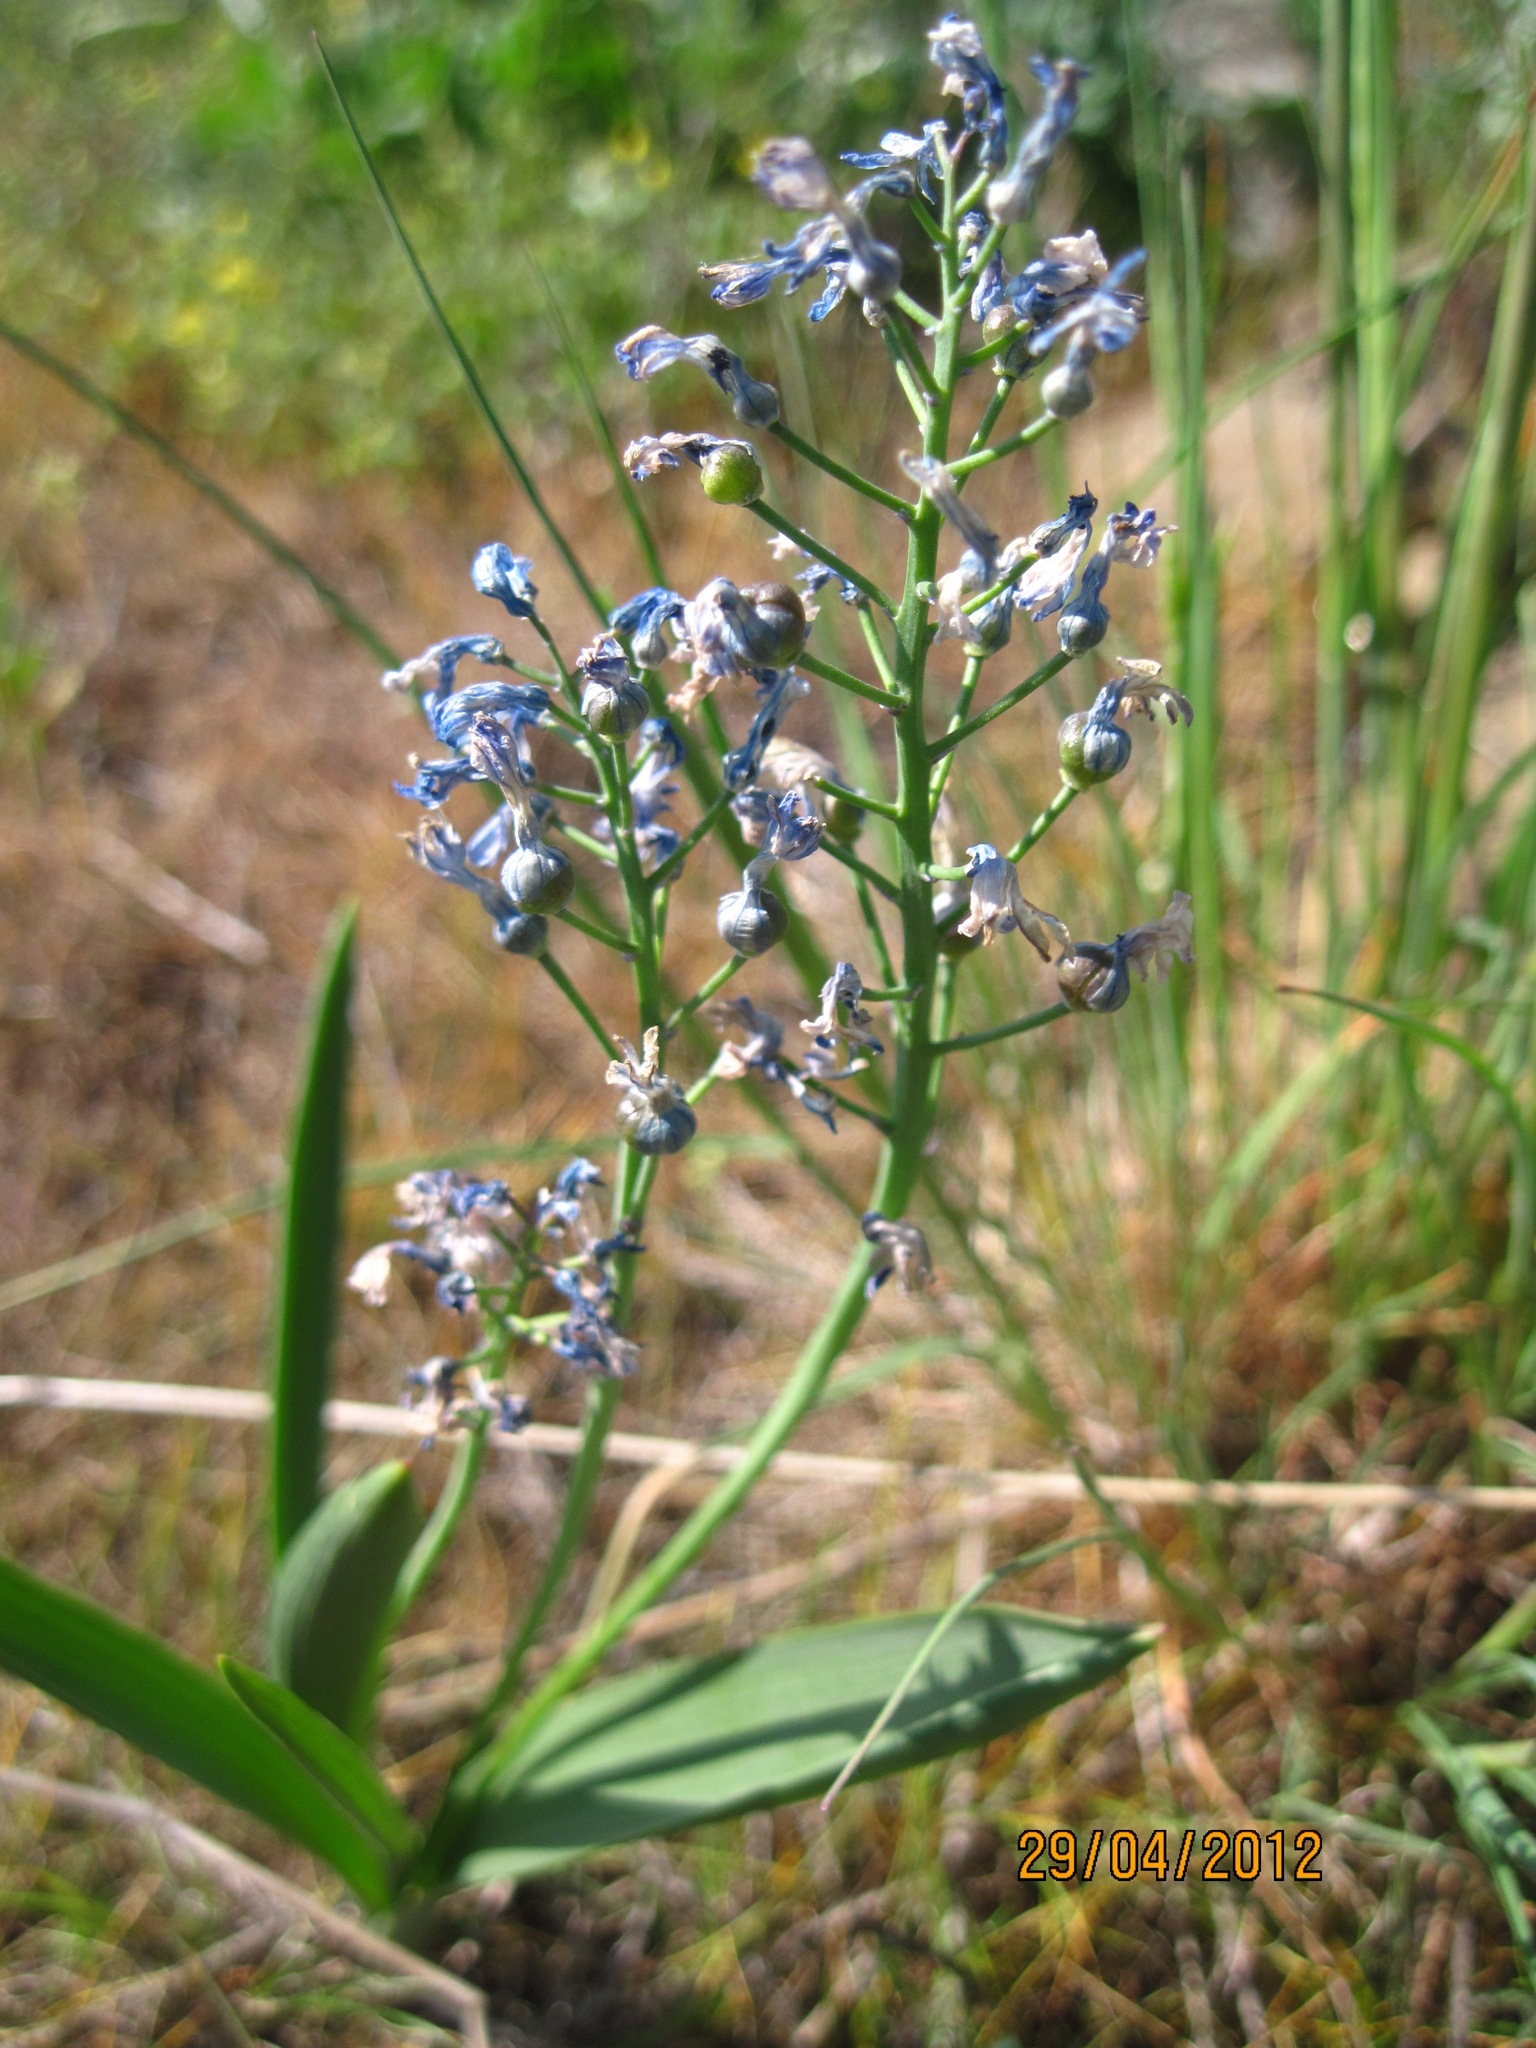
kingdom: Plantae
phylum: Tracheophyta
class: Liliopsida
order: Asparagales
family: Asparagaceae
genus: Hyacinthella
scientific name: Hyacinthella pallasiana
